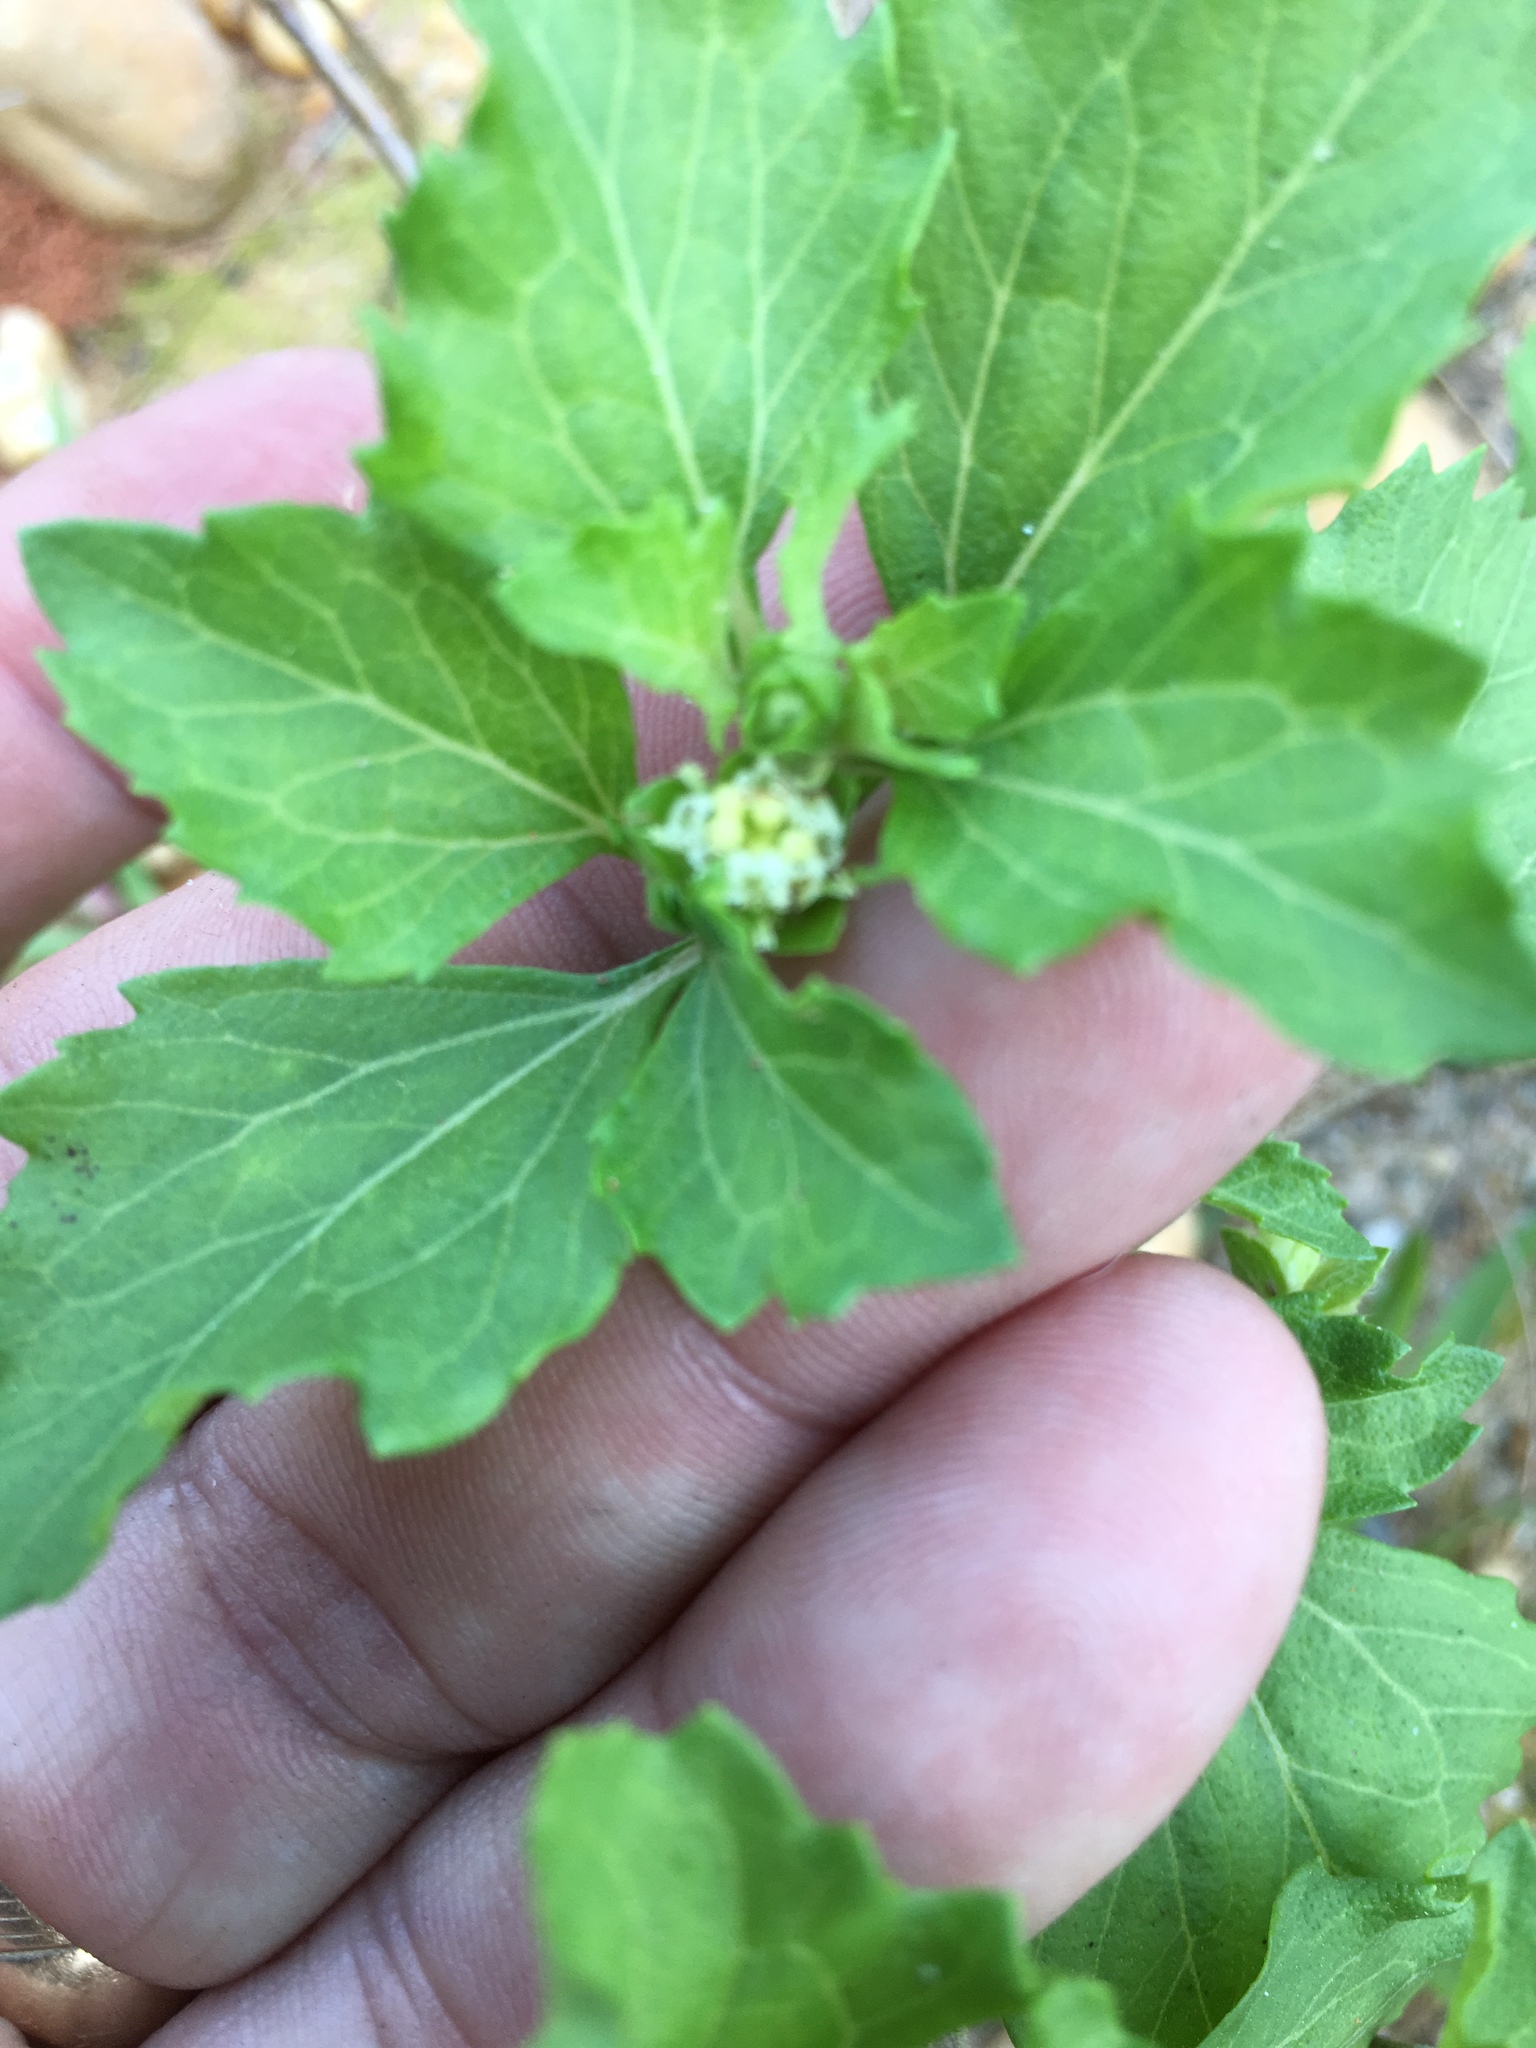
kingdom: Plantae
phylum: Tracheophyta
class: Magnoliopsida
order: Asterales
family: Asteraceae
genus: Acanthospermum
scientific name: Acanthospermum australe
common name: Paraguayan starbur
